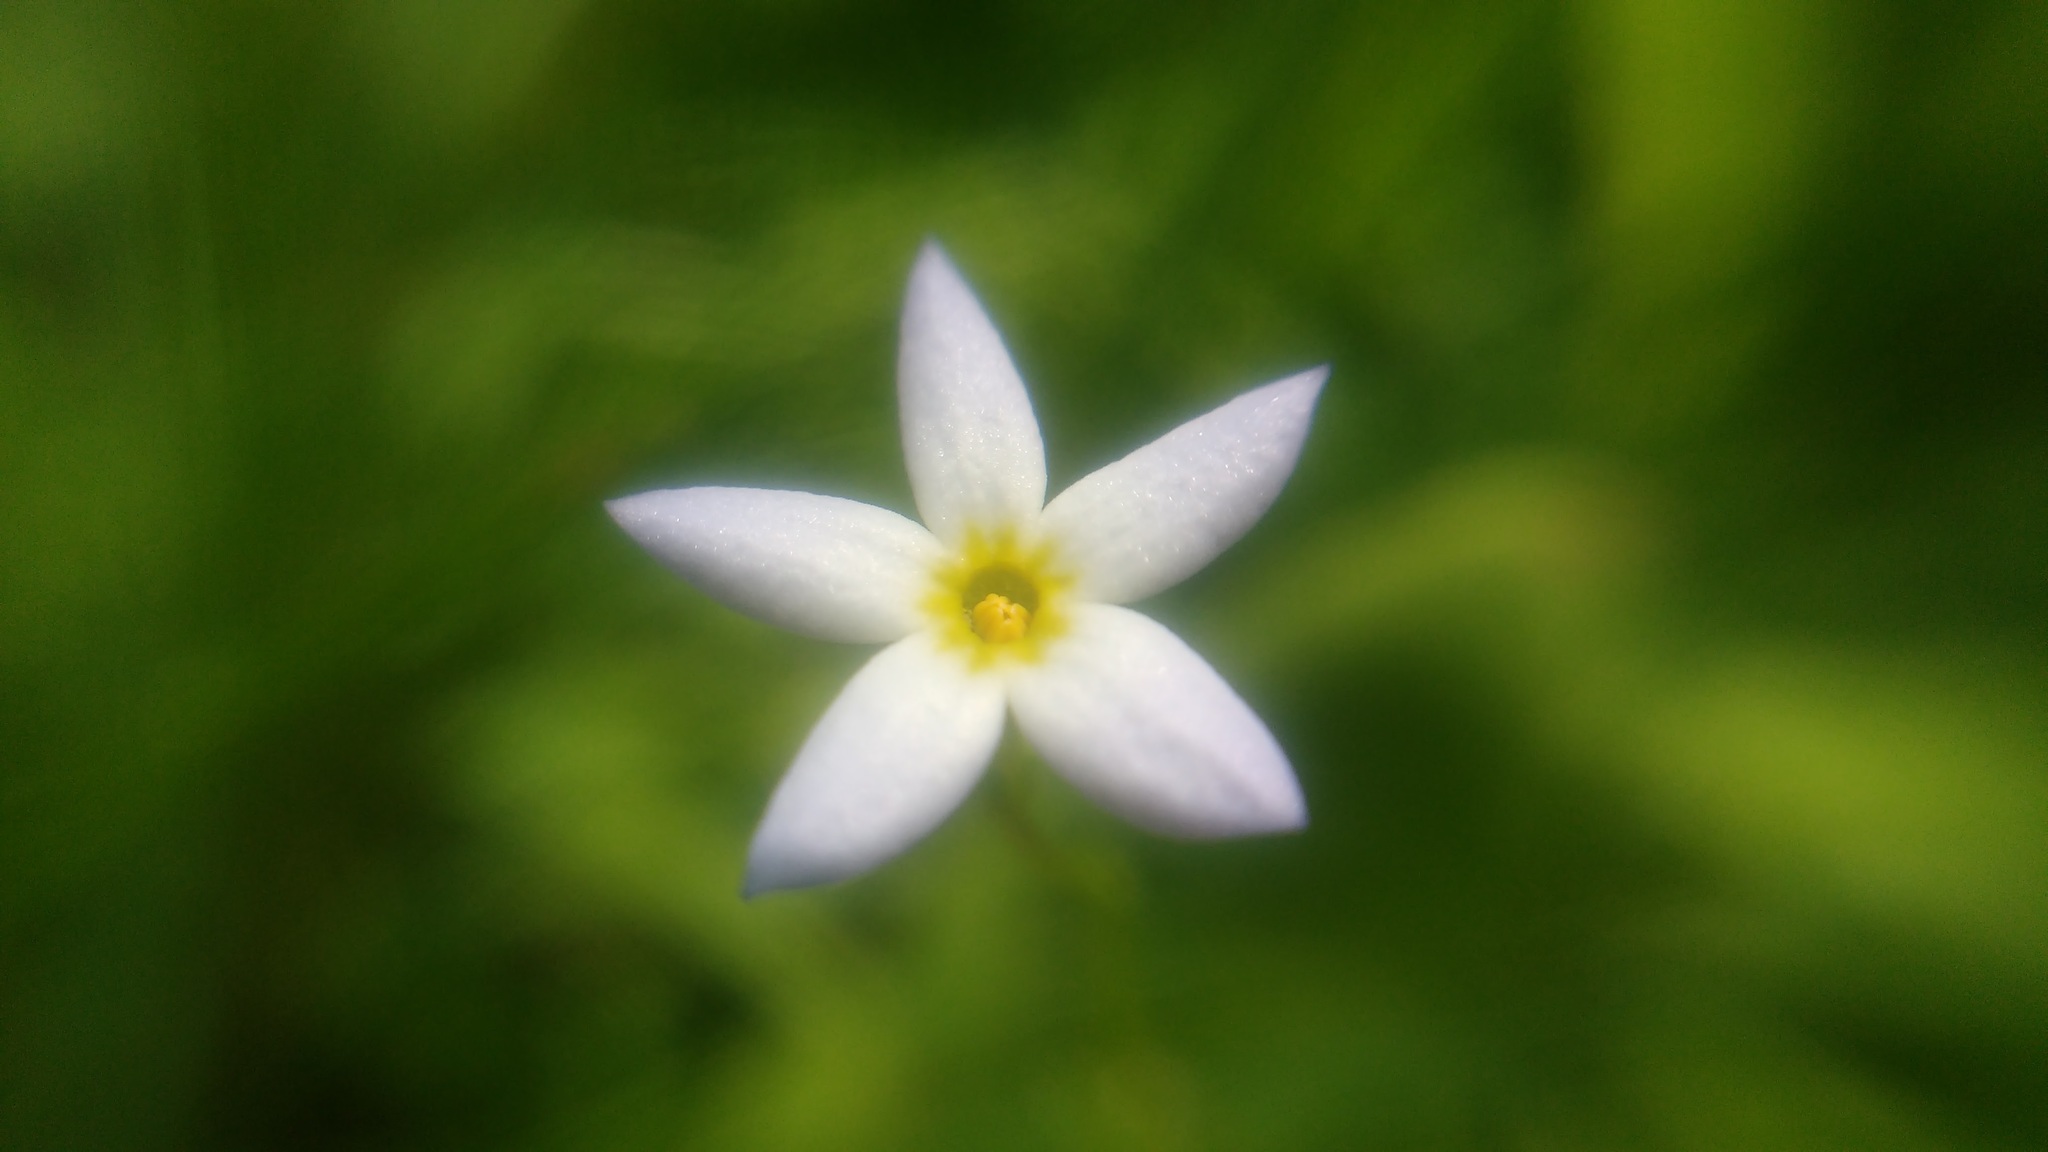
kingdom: Plantae
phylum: Tracheophyta
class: Magnoliopsida
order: Gentianales
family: Rubiaceae
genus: Houstonia
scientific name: Houstonia caerulea
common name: Bluets
